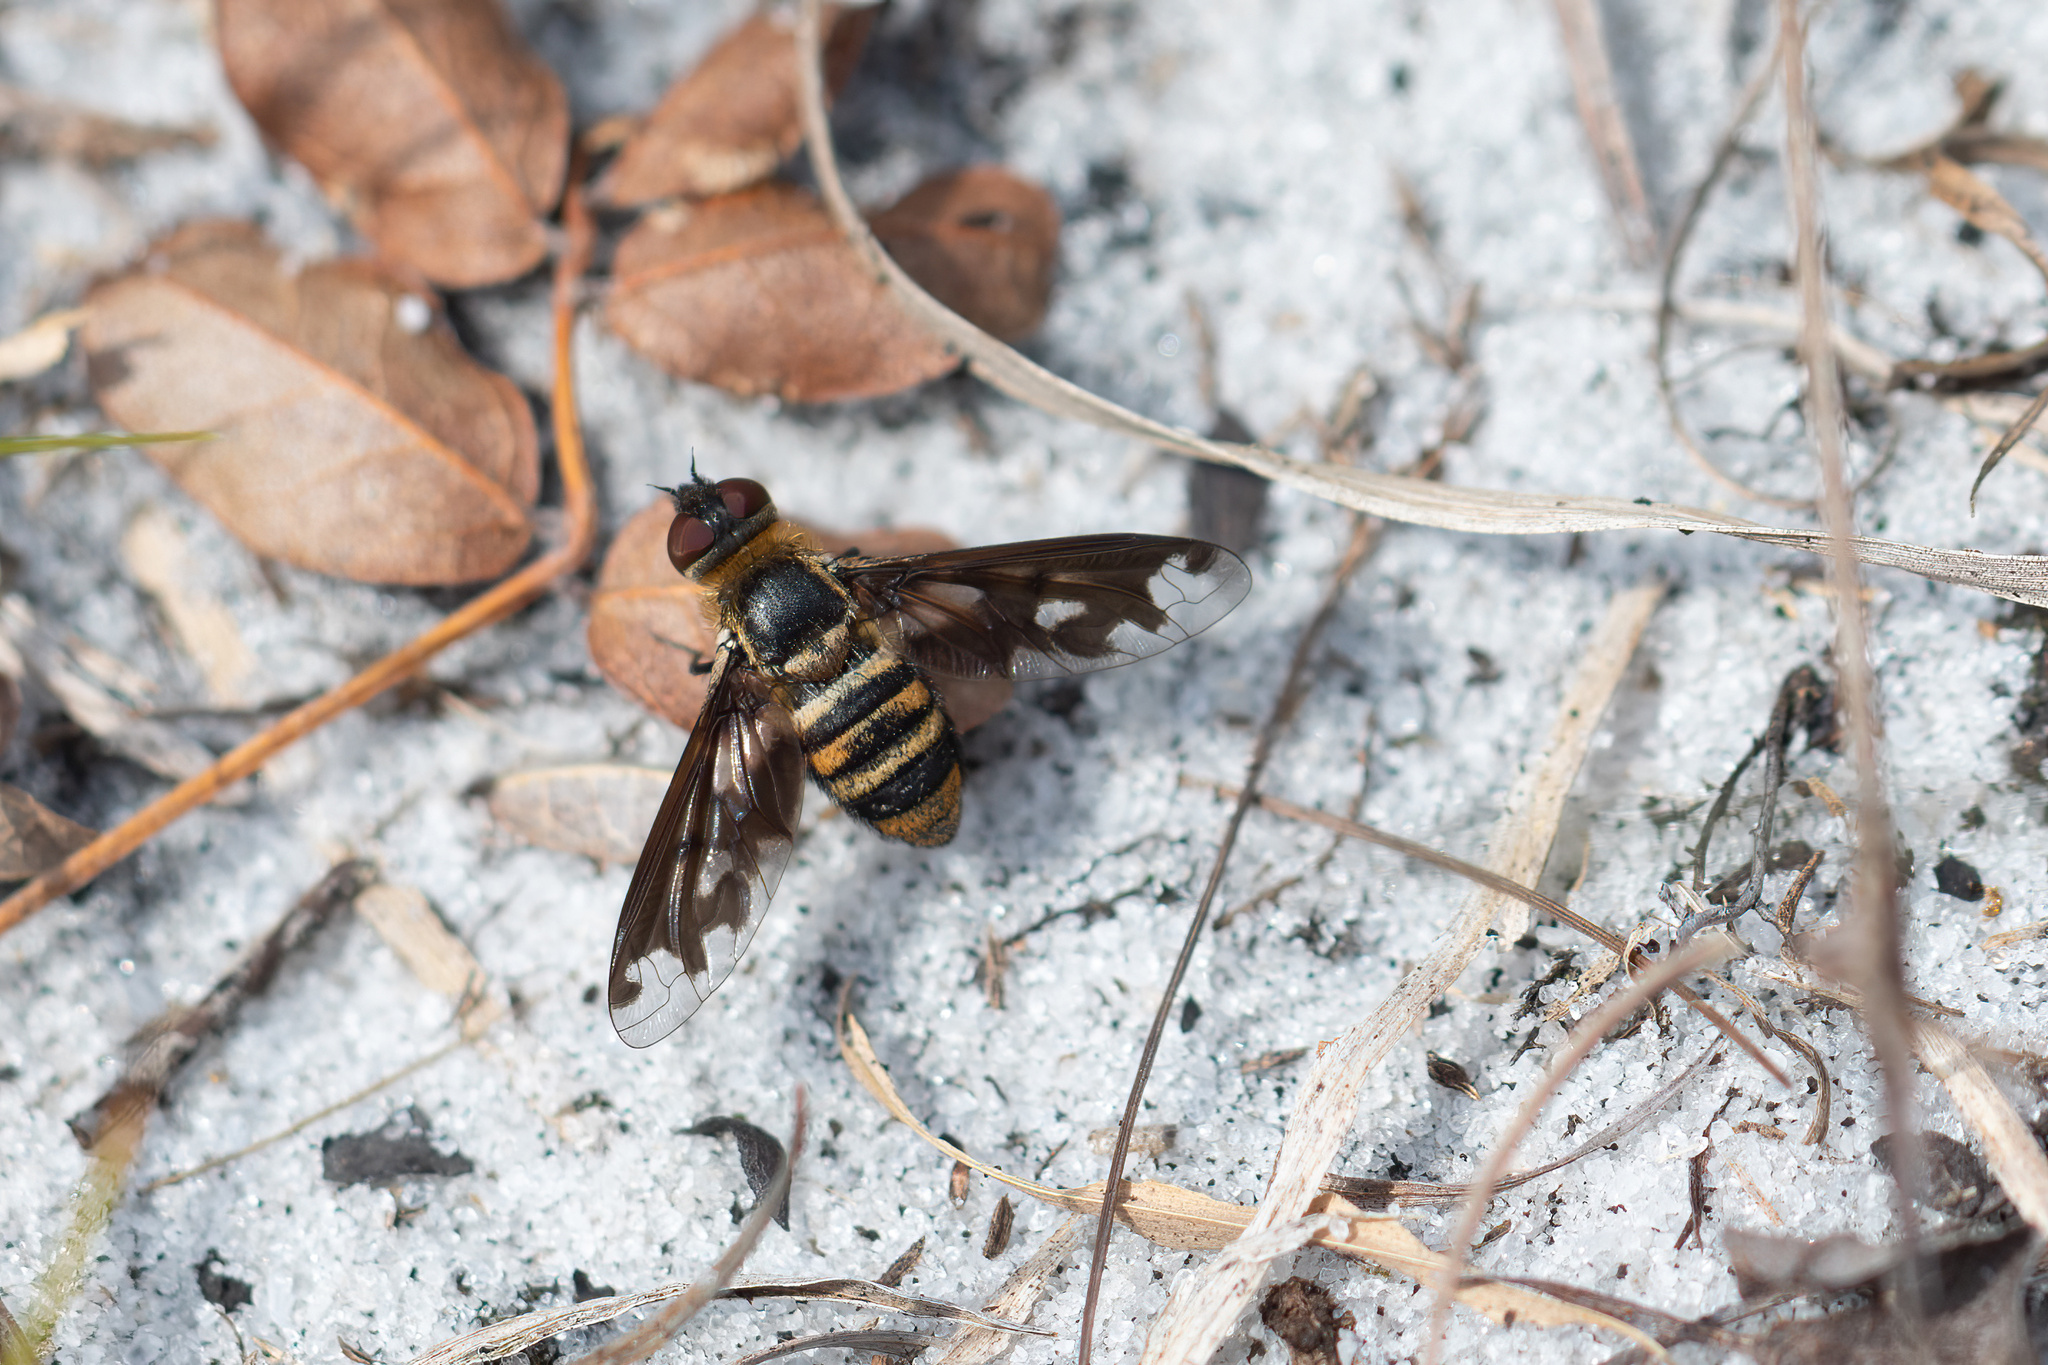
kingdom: Animalia
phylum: Arthropoda
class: Insecta
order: Diptera
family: Bombyliidae
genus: Exoprosopa
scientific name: Exoprosopa fascipennis
